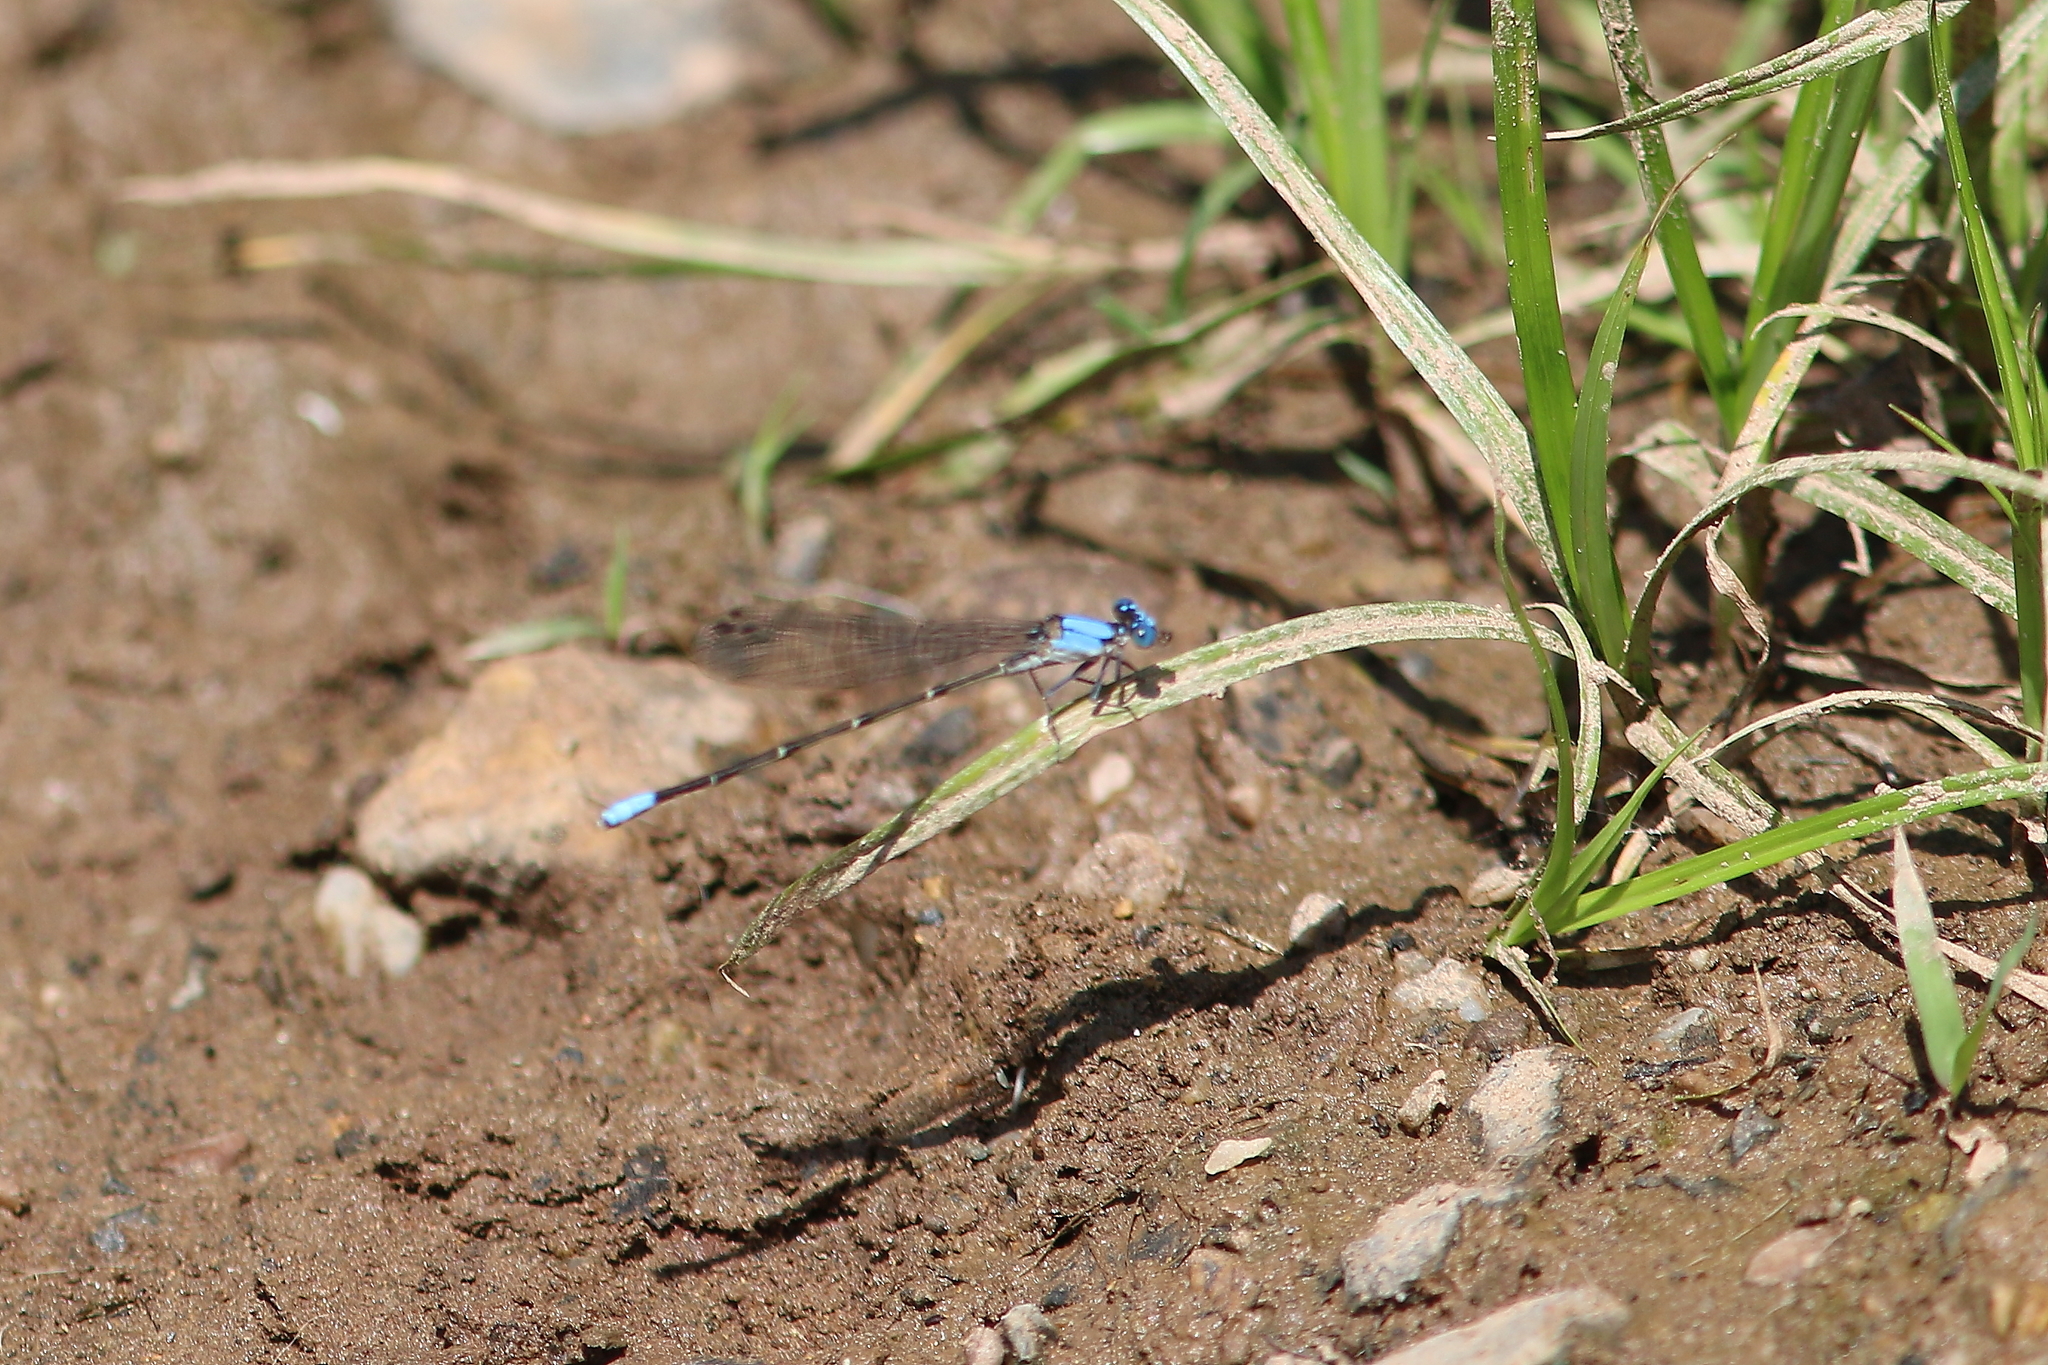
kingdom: Animalia
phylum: Arthropoda
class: Insecta
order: Odonata
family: Coenagrionidae
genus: Argia
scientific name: Argia apicalis
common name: Blue-fronted dancer
